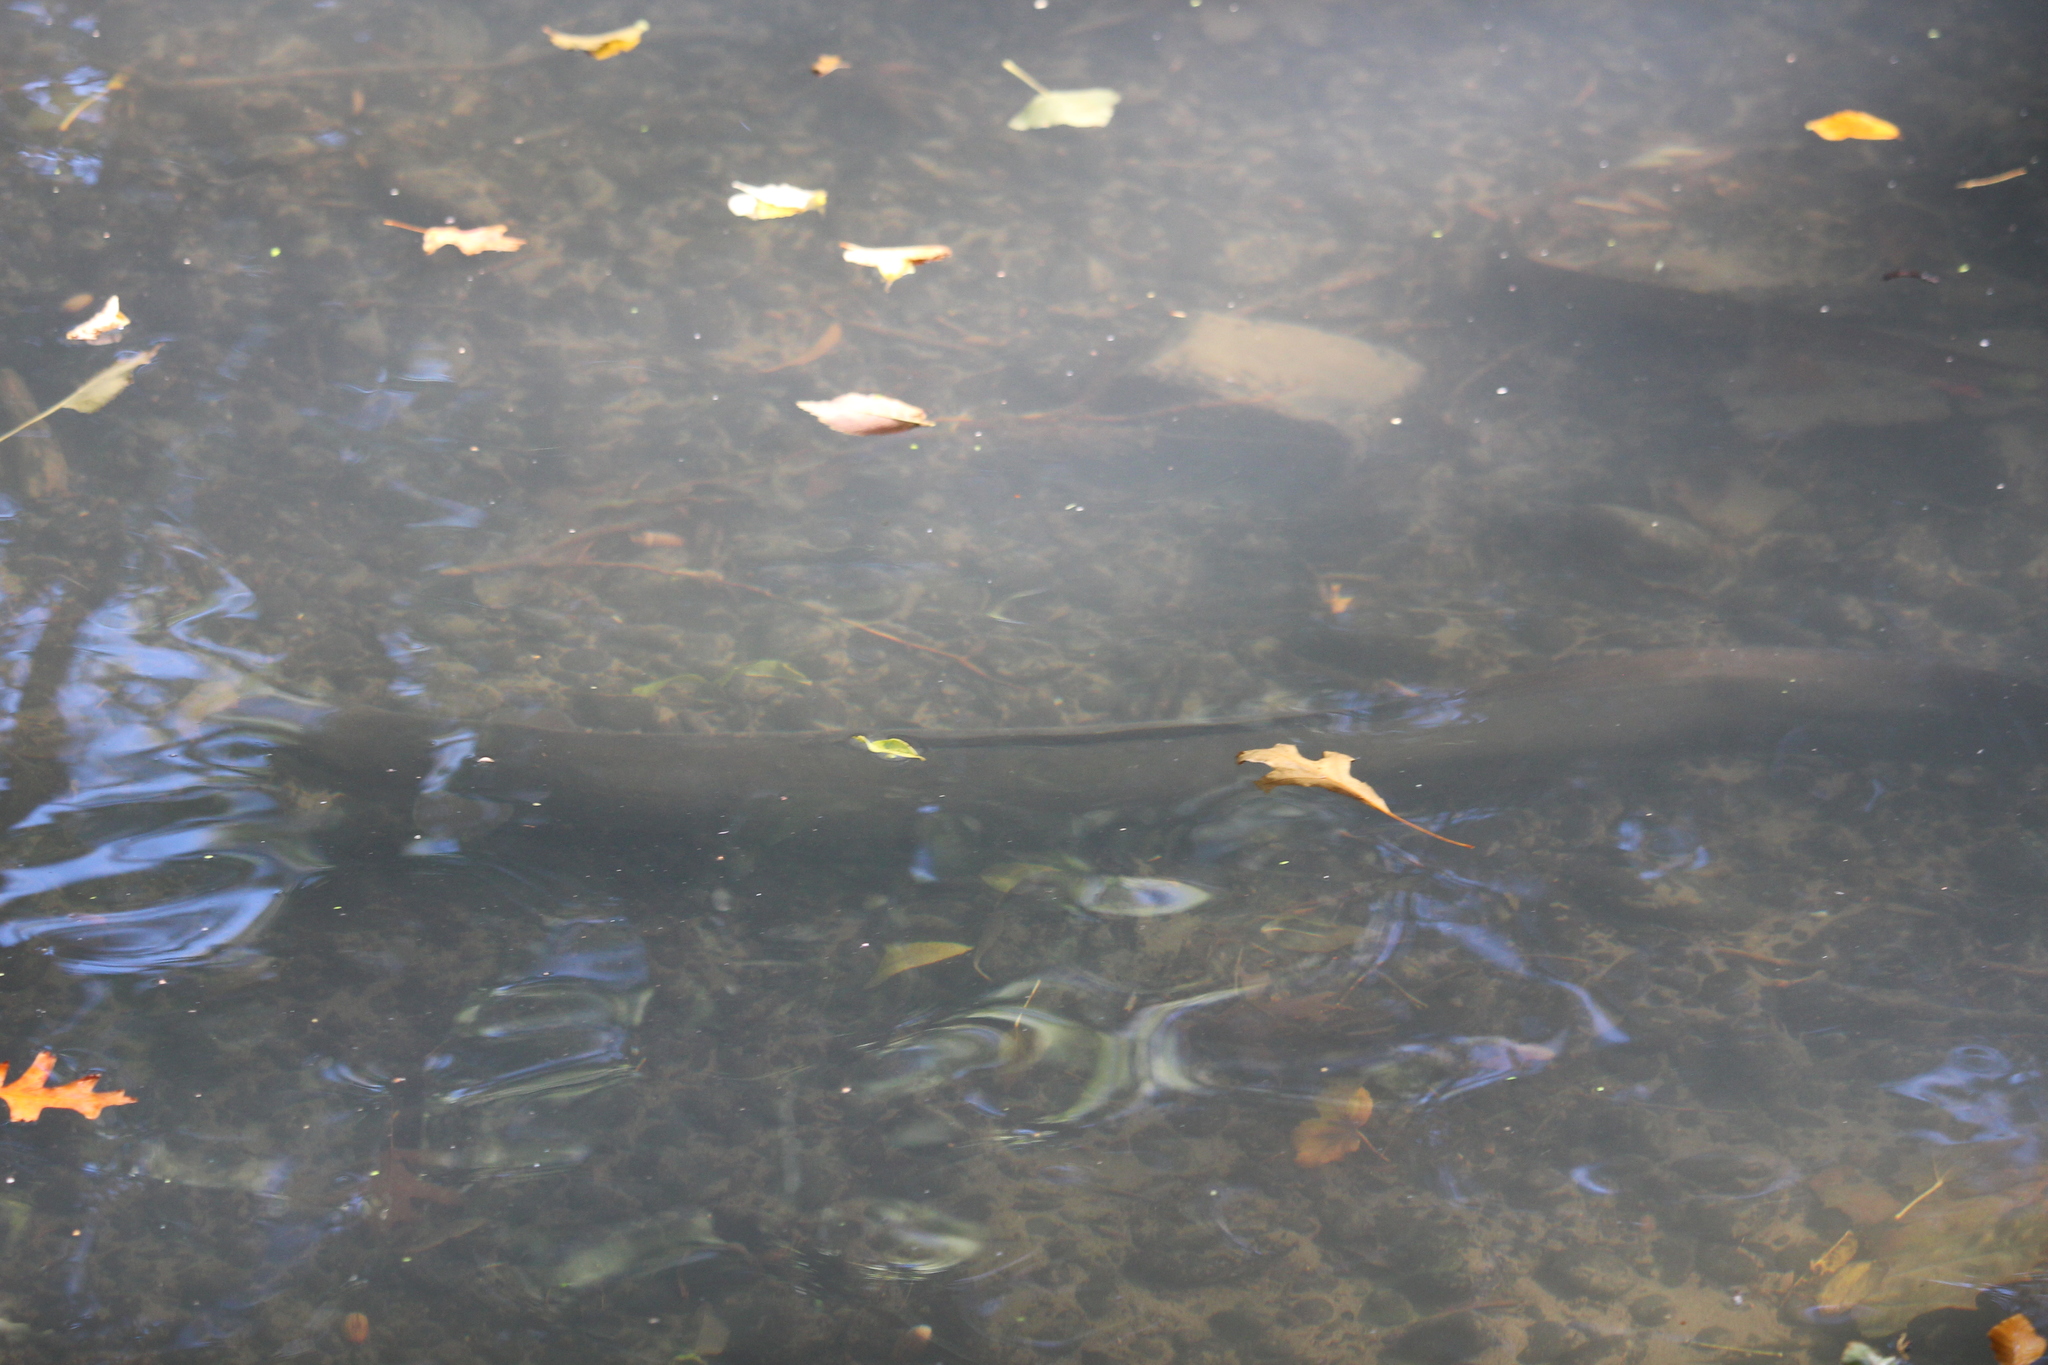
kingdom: Animalia
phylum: Chordata
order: Anguilliformes
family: Anguillidae
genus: Anguilla
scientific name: Anguilla
